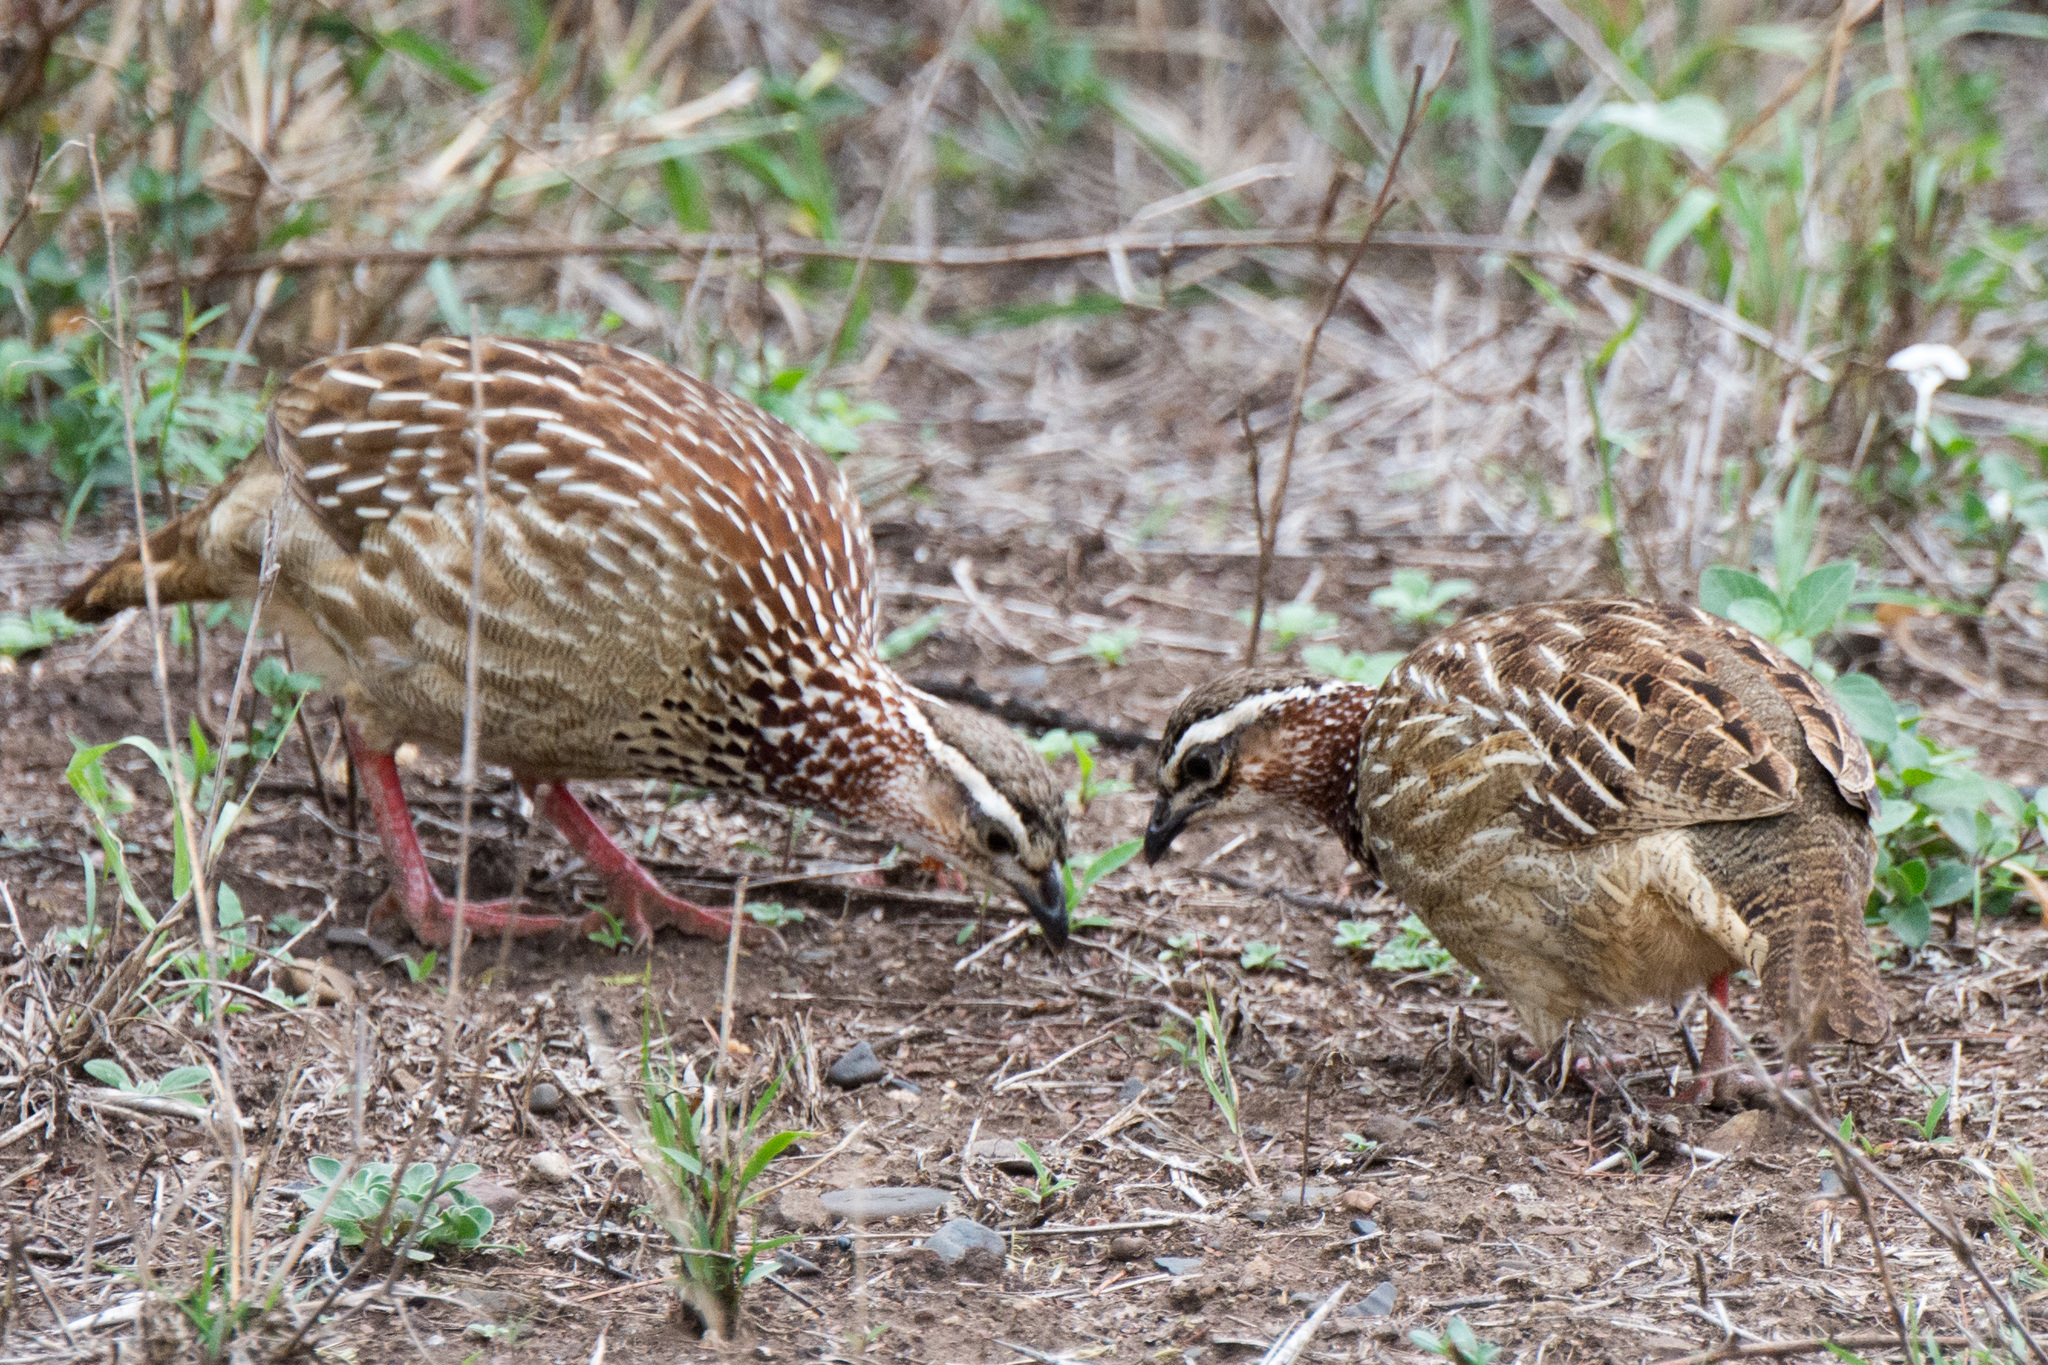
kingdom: Animalia
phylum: Chordata
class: Aves
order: Galliformes
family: Phasianidae
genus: Ortygornis
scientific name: Ortygornis sephaena
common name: Crested francolin
